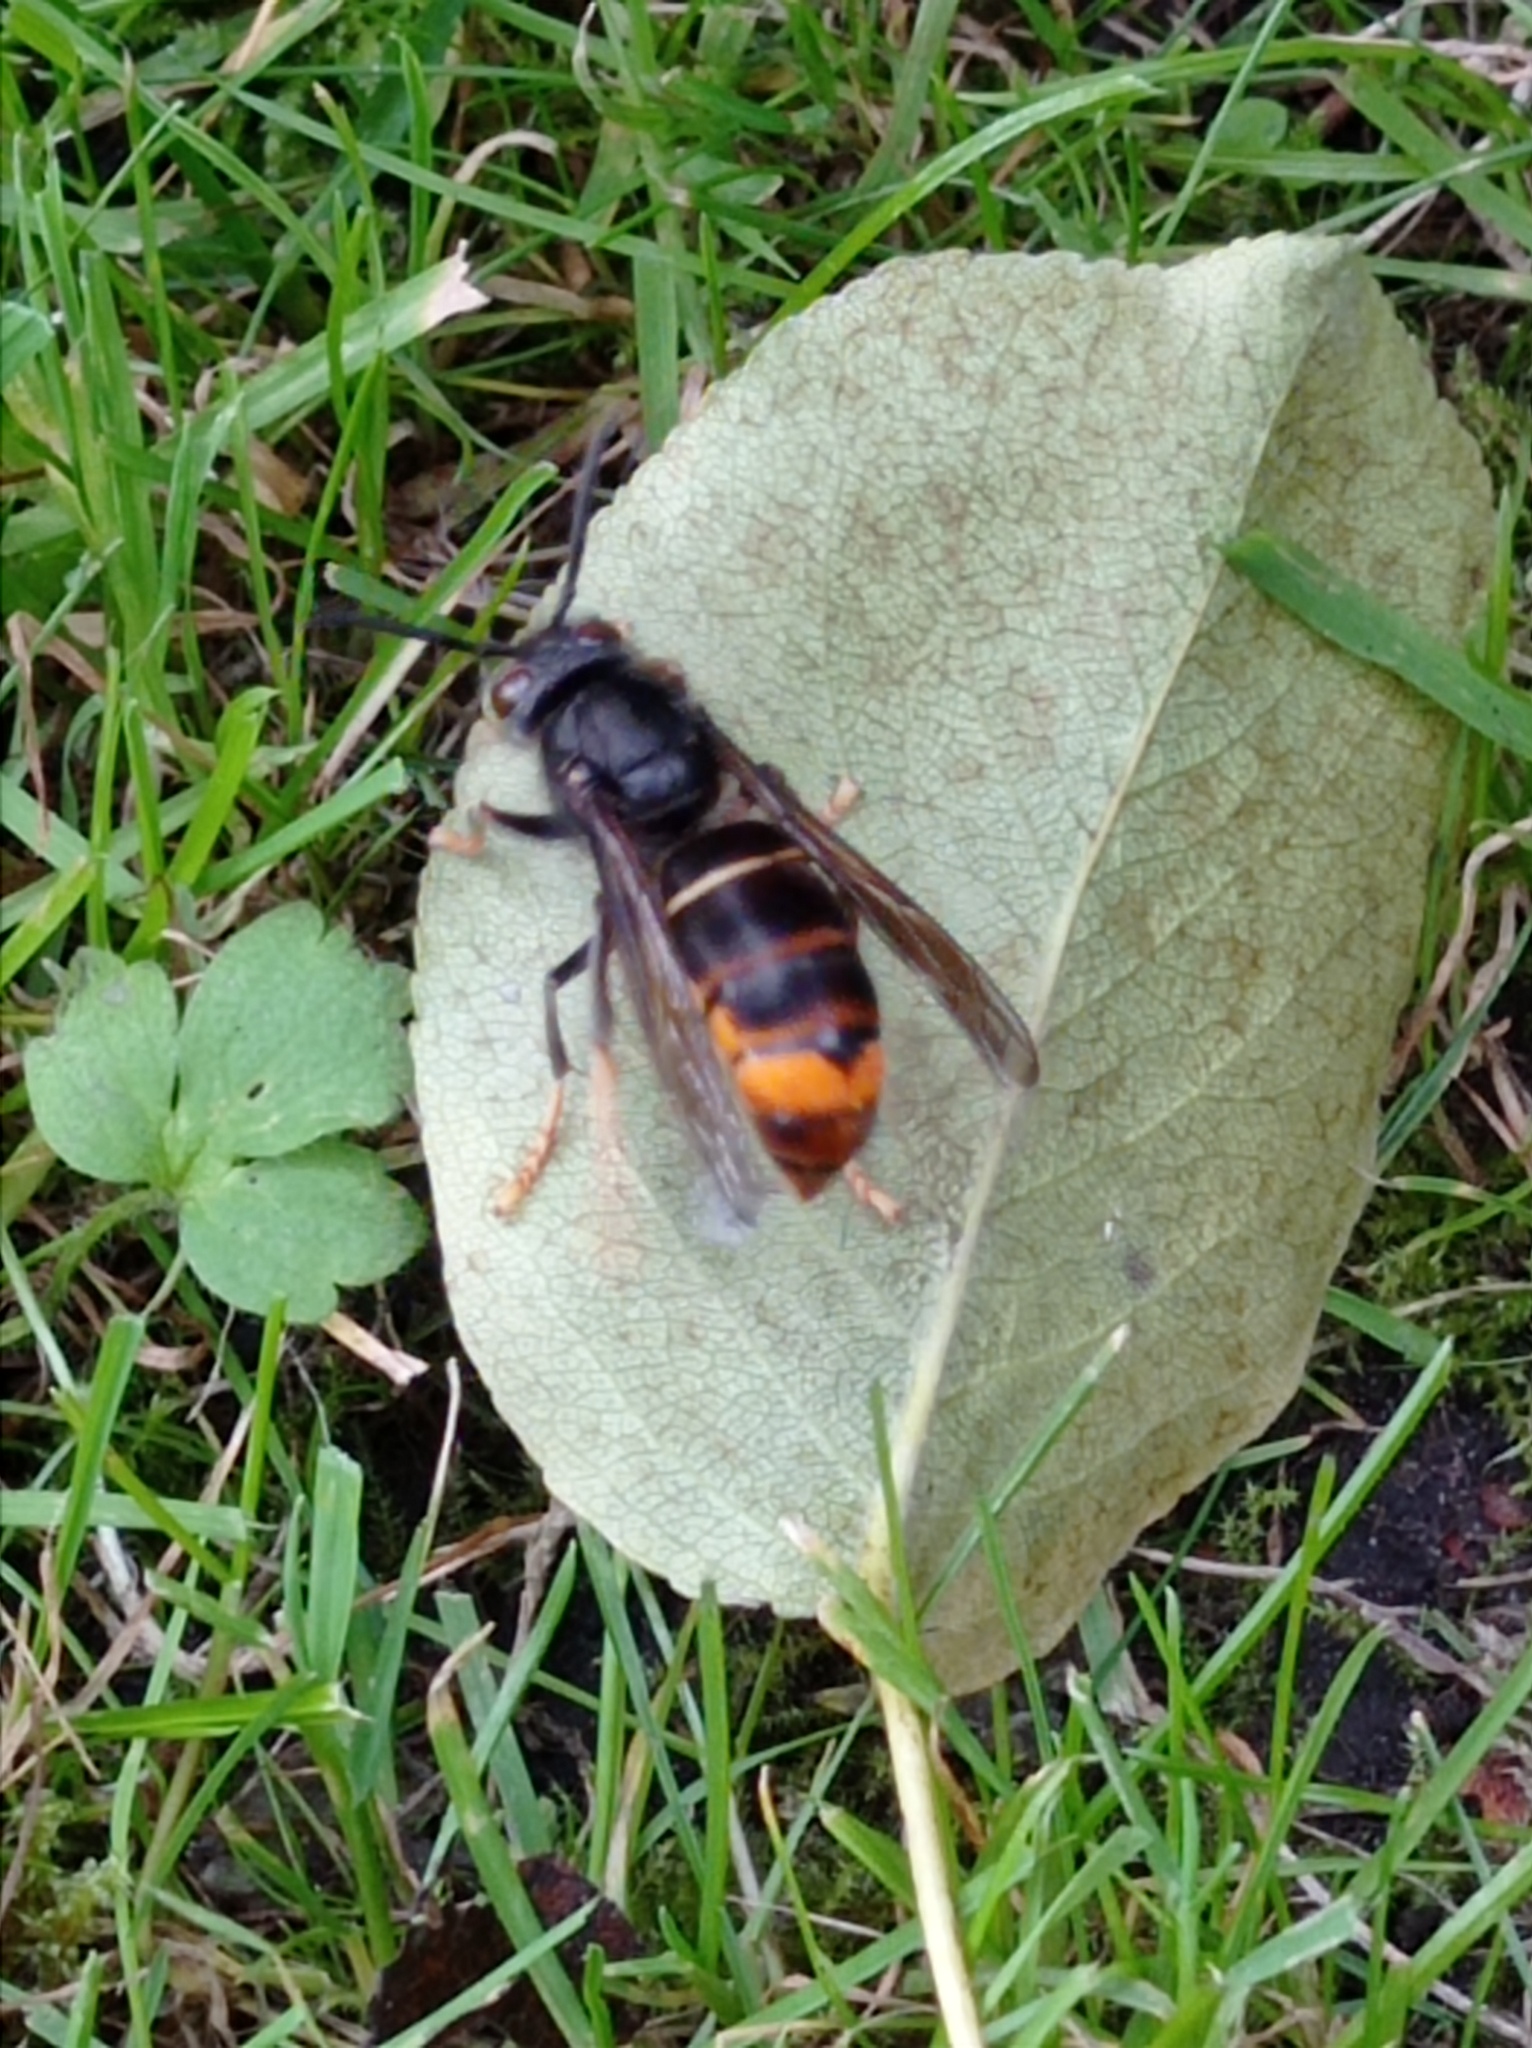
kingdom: Animalia
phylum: Arthropoda
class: Insecta
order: Hymenoptera
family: Vespidae
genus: Vespa
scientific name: Vespa velutina
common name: Asian hornet
